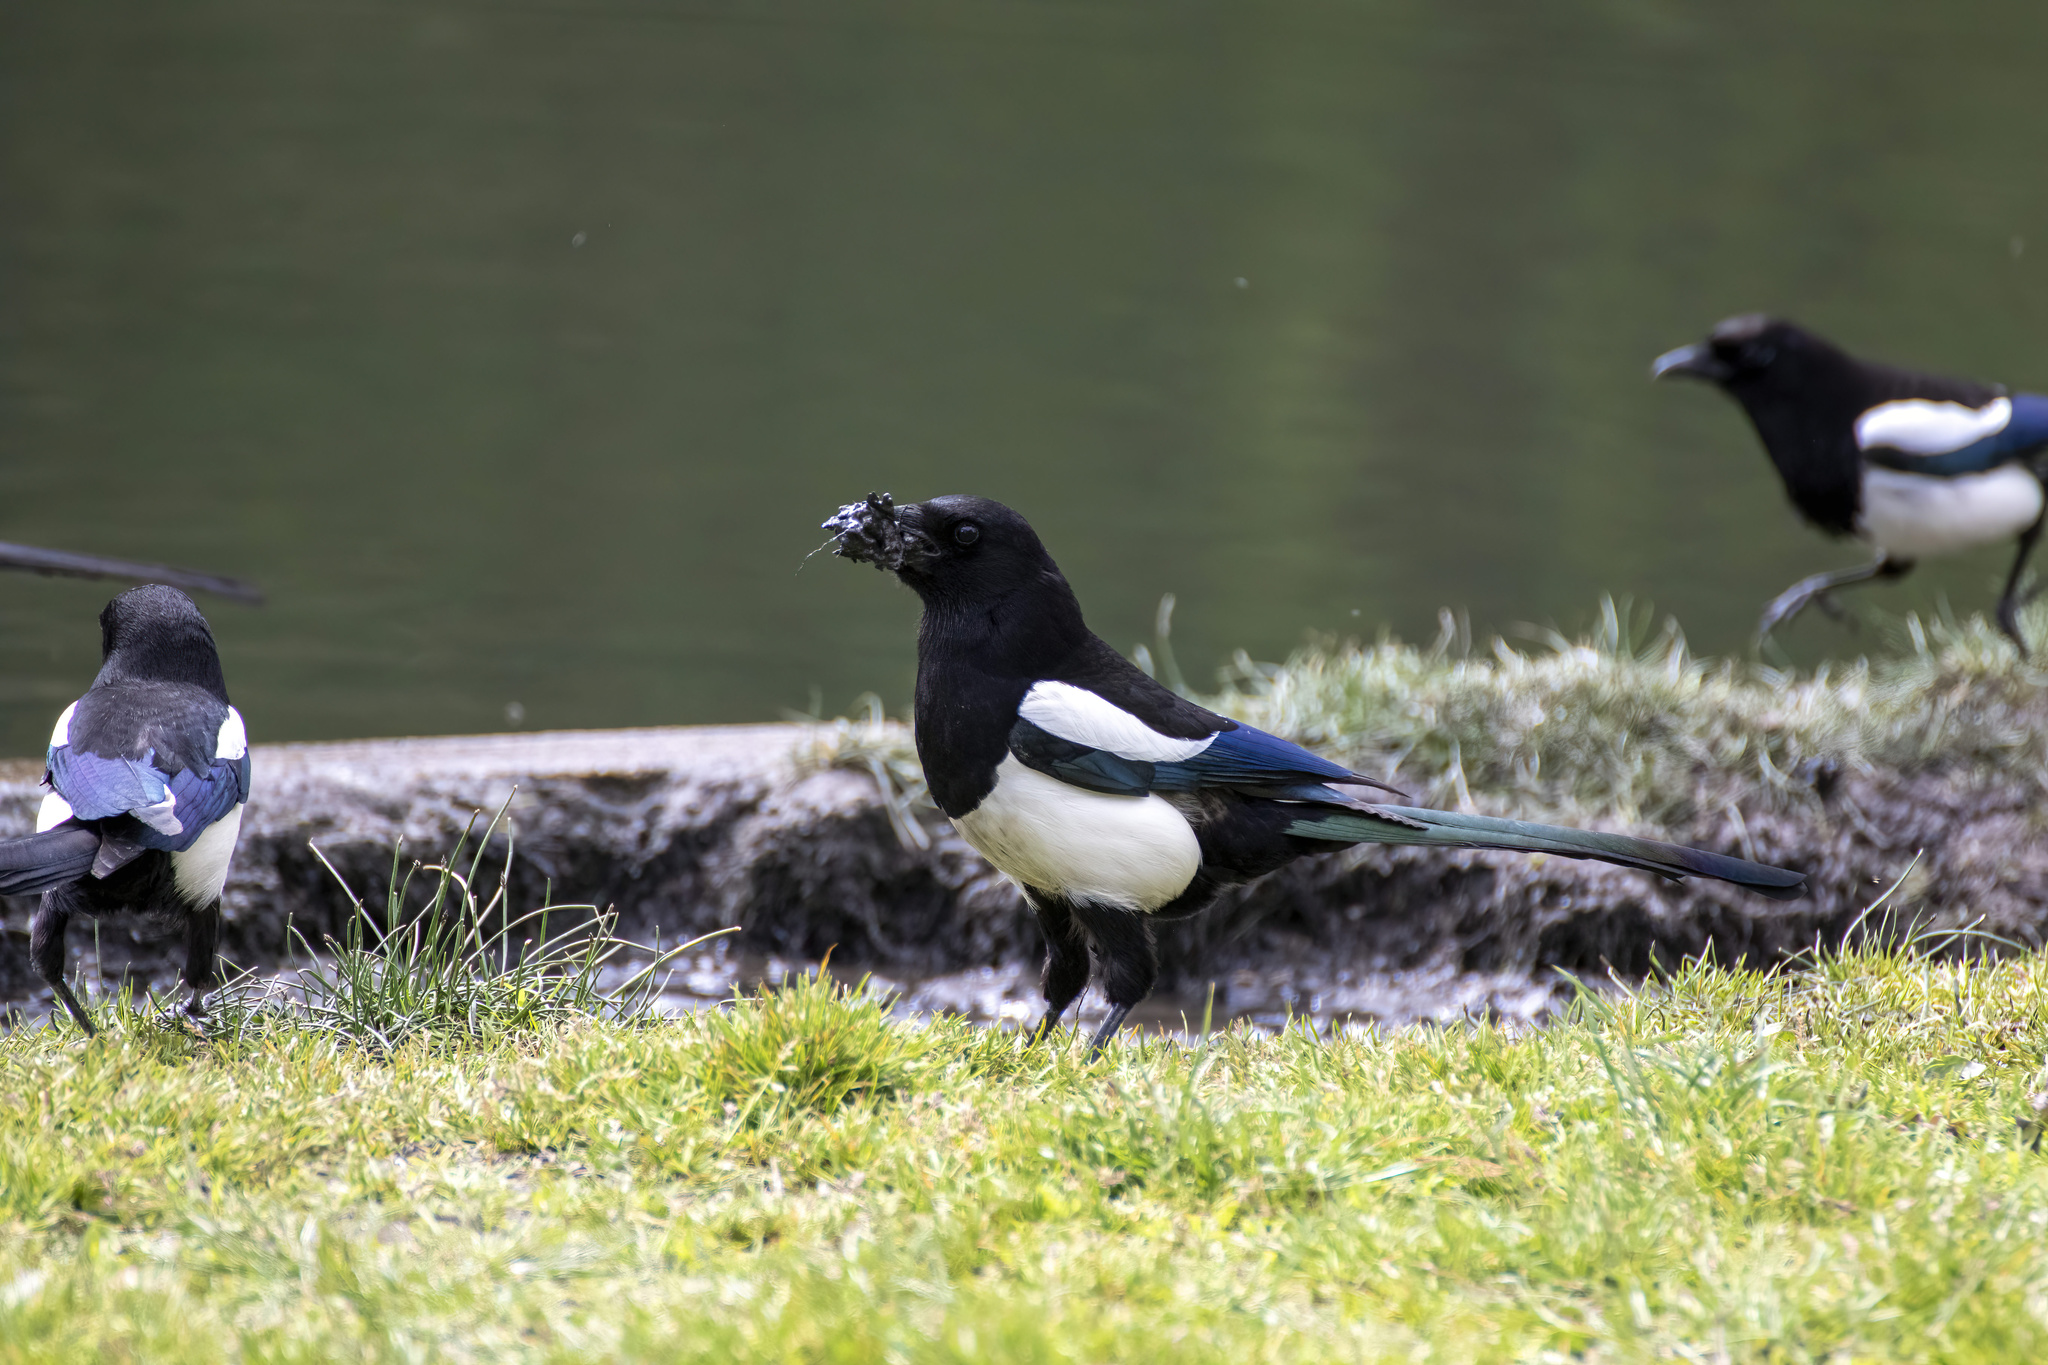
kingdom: Animalia
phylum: Chordata
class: Aves
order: Passeriformes
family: Corvidae
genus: Pica
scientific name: Pica pica
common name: Eurasian magpie
